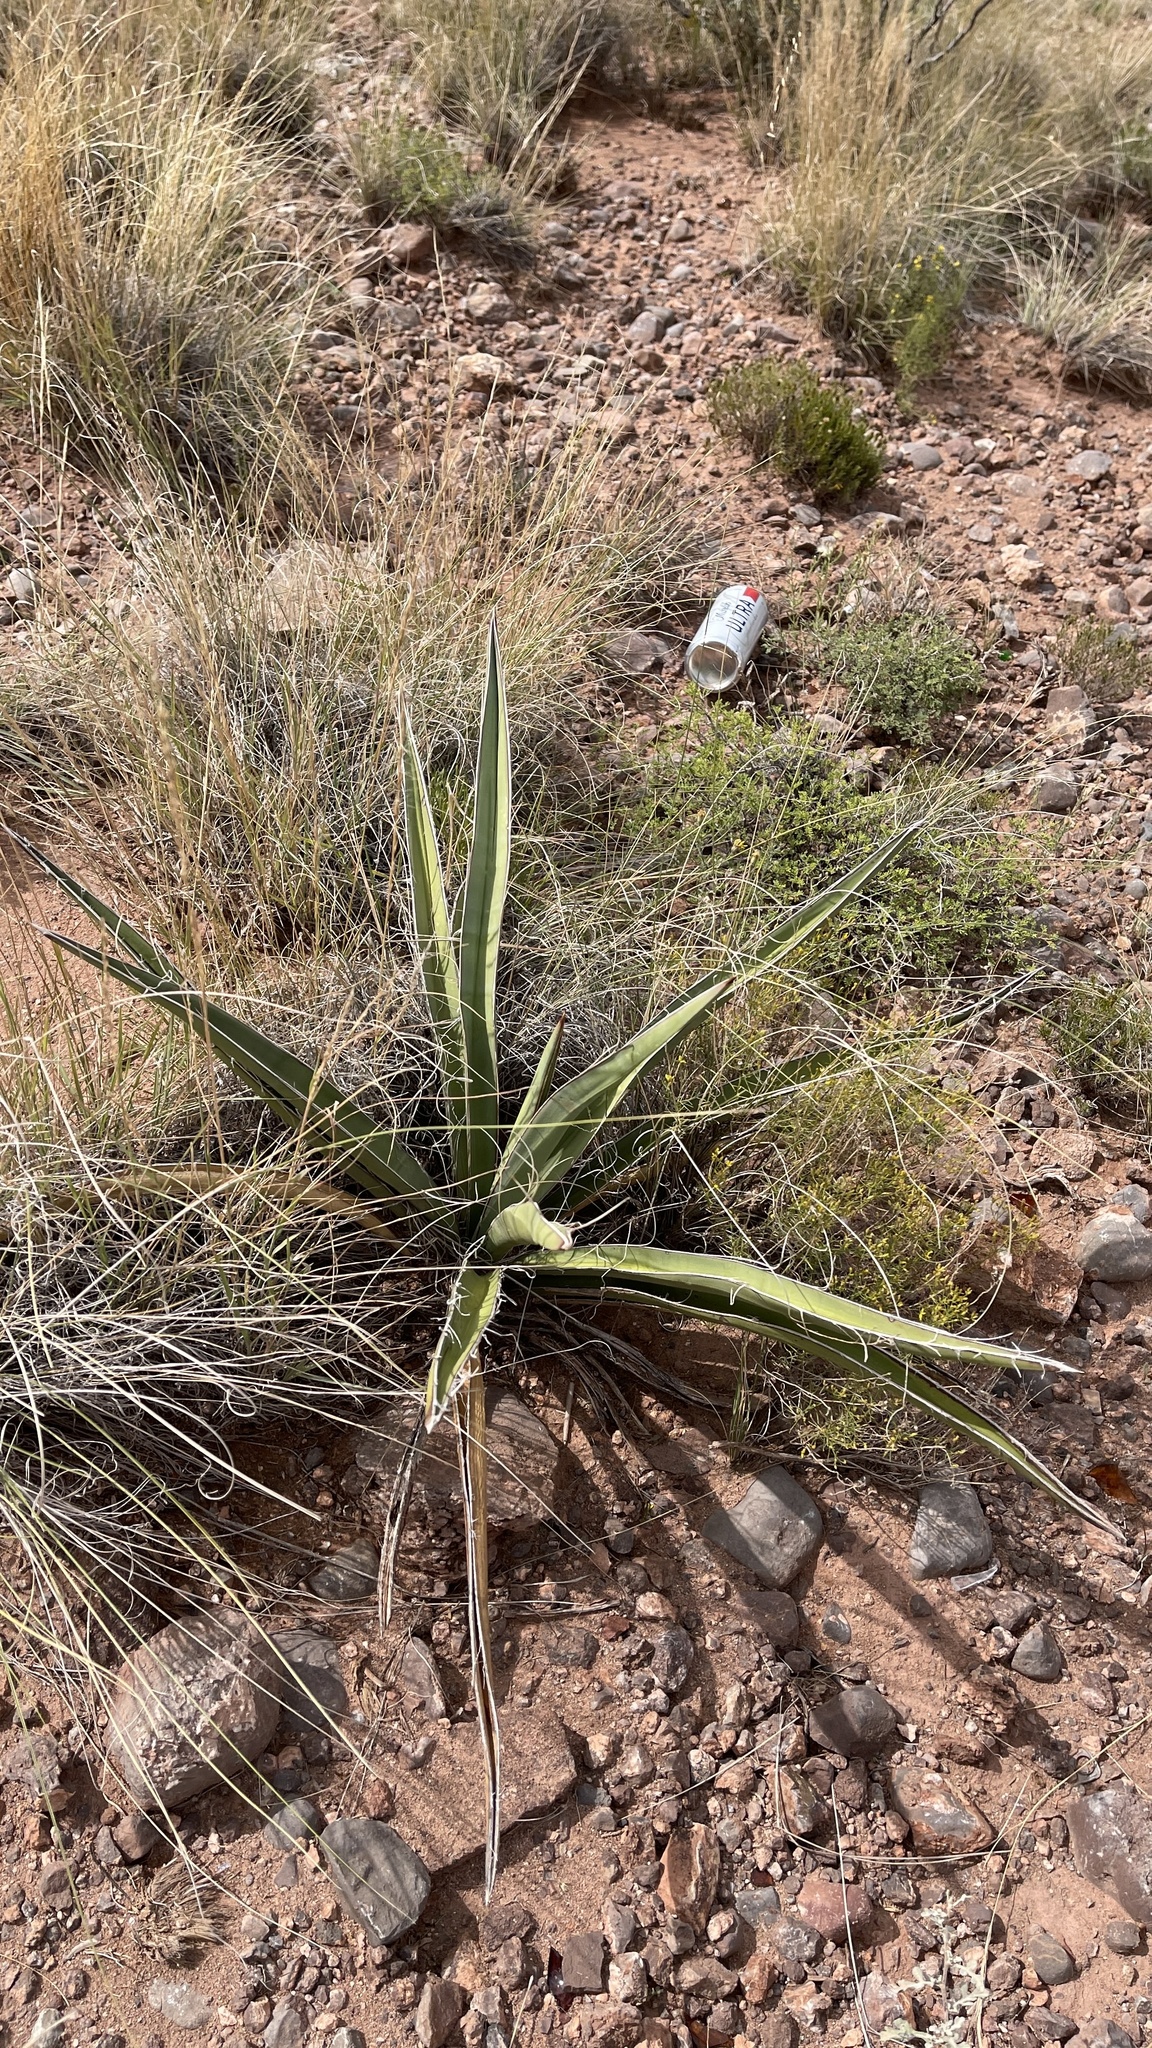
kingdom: Plantae
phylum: Tracheophyta
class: Liliopsida
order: Asparagales
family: Asparagaceae
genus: Yucca
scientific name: Yucca baccata
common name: Banana yucca
